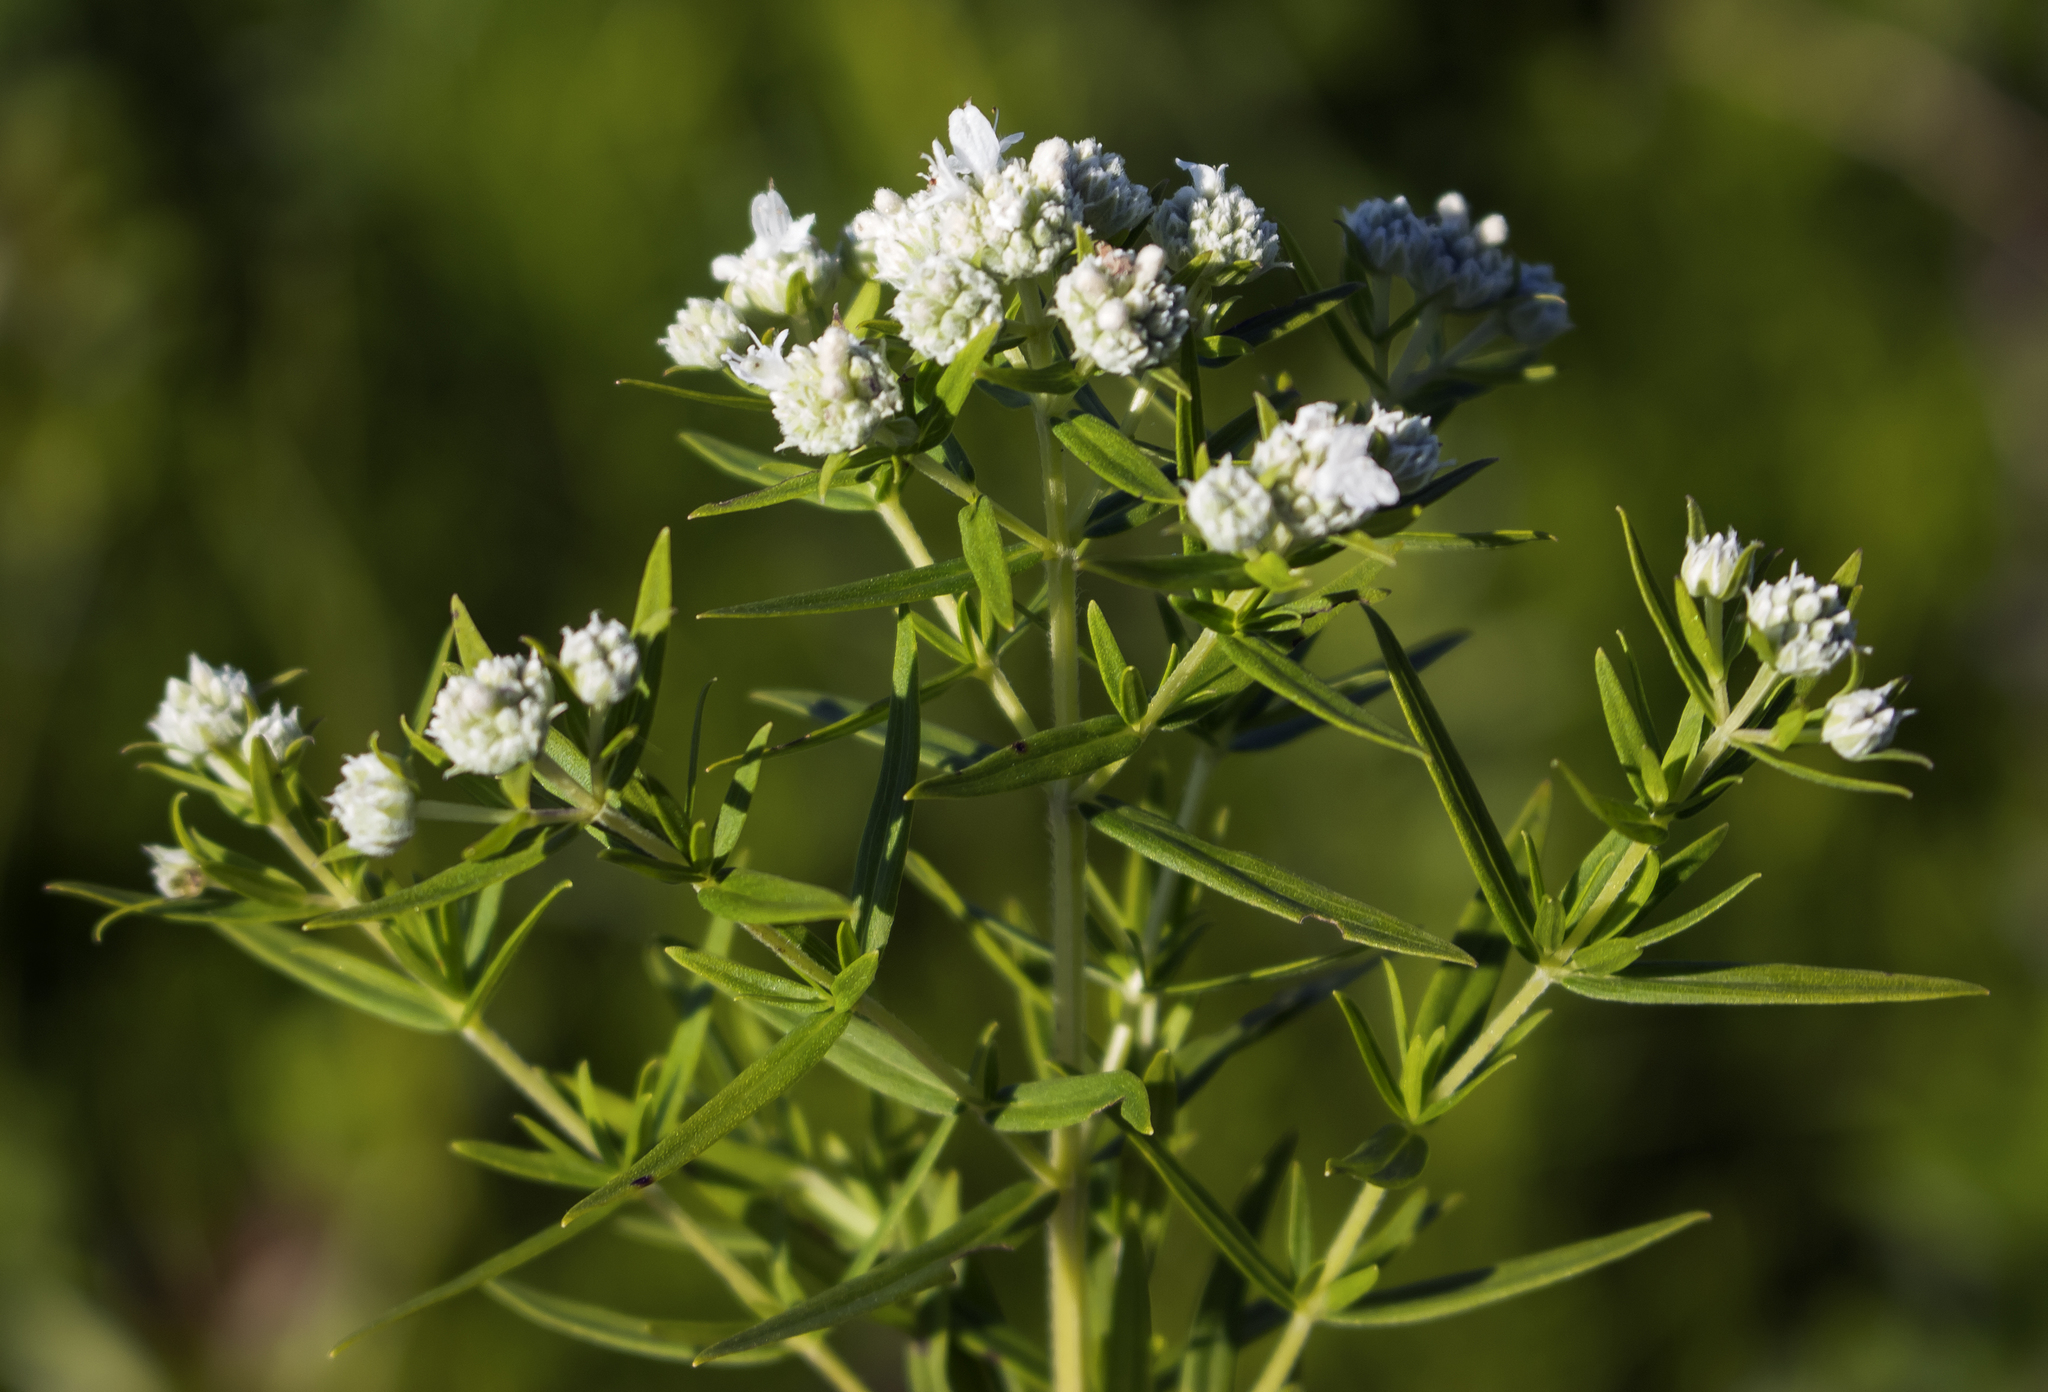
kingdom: Plantae
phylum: Tracheophyta
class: Magnoliopsida
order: Lamiales
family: Lamiaceae
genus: Pycnanthemum
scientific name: Pycnanthemum virginianum
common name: Virginia mountain-mint
